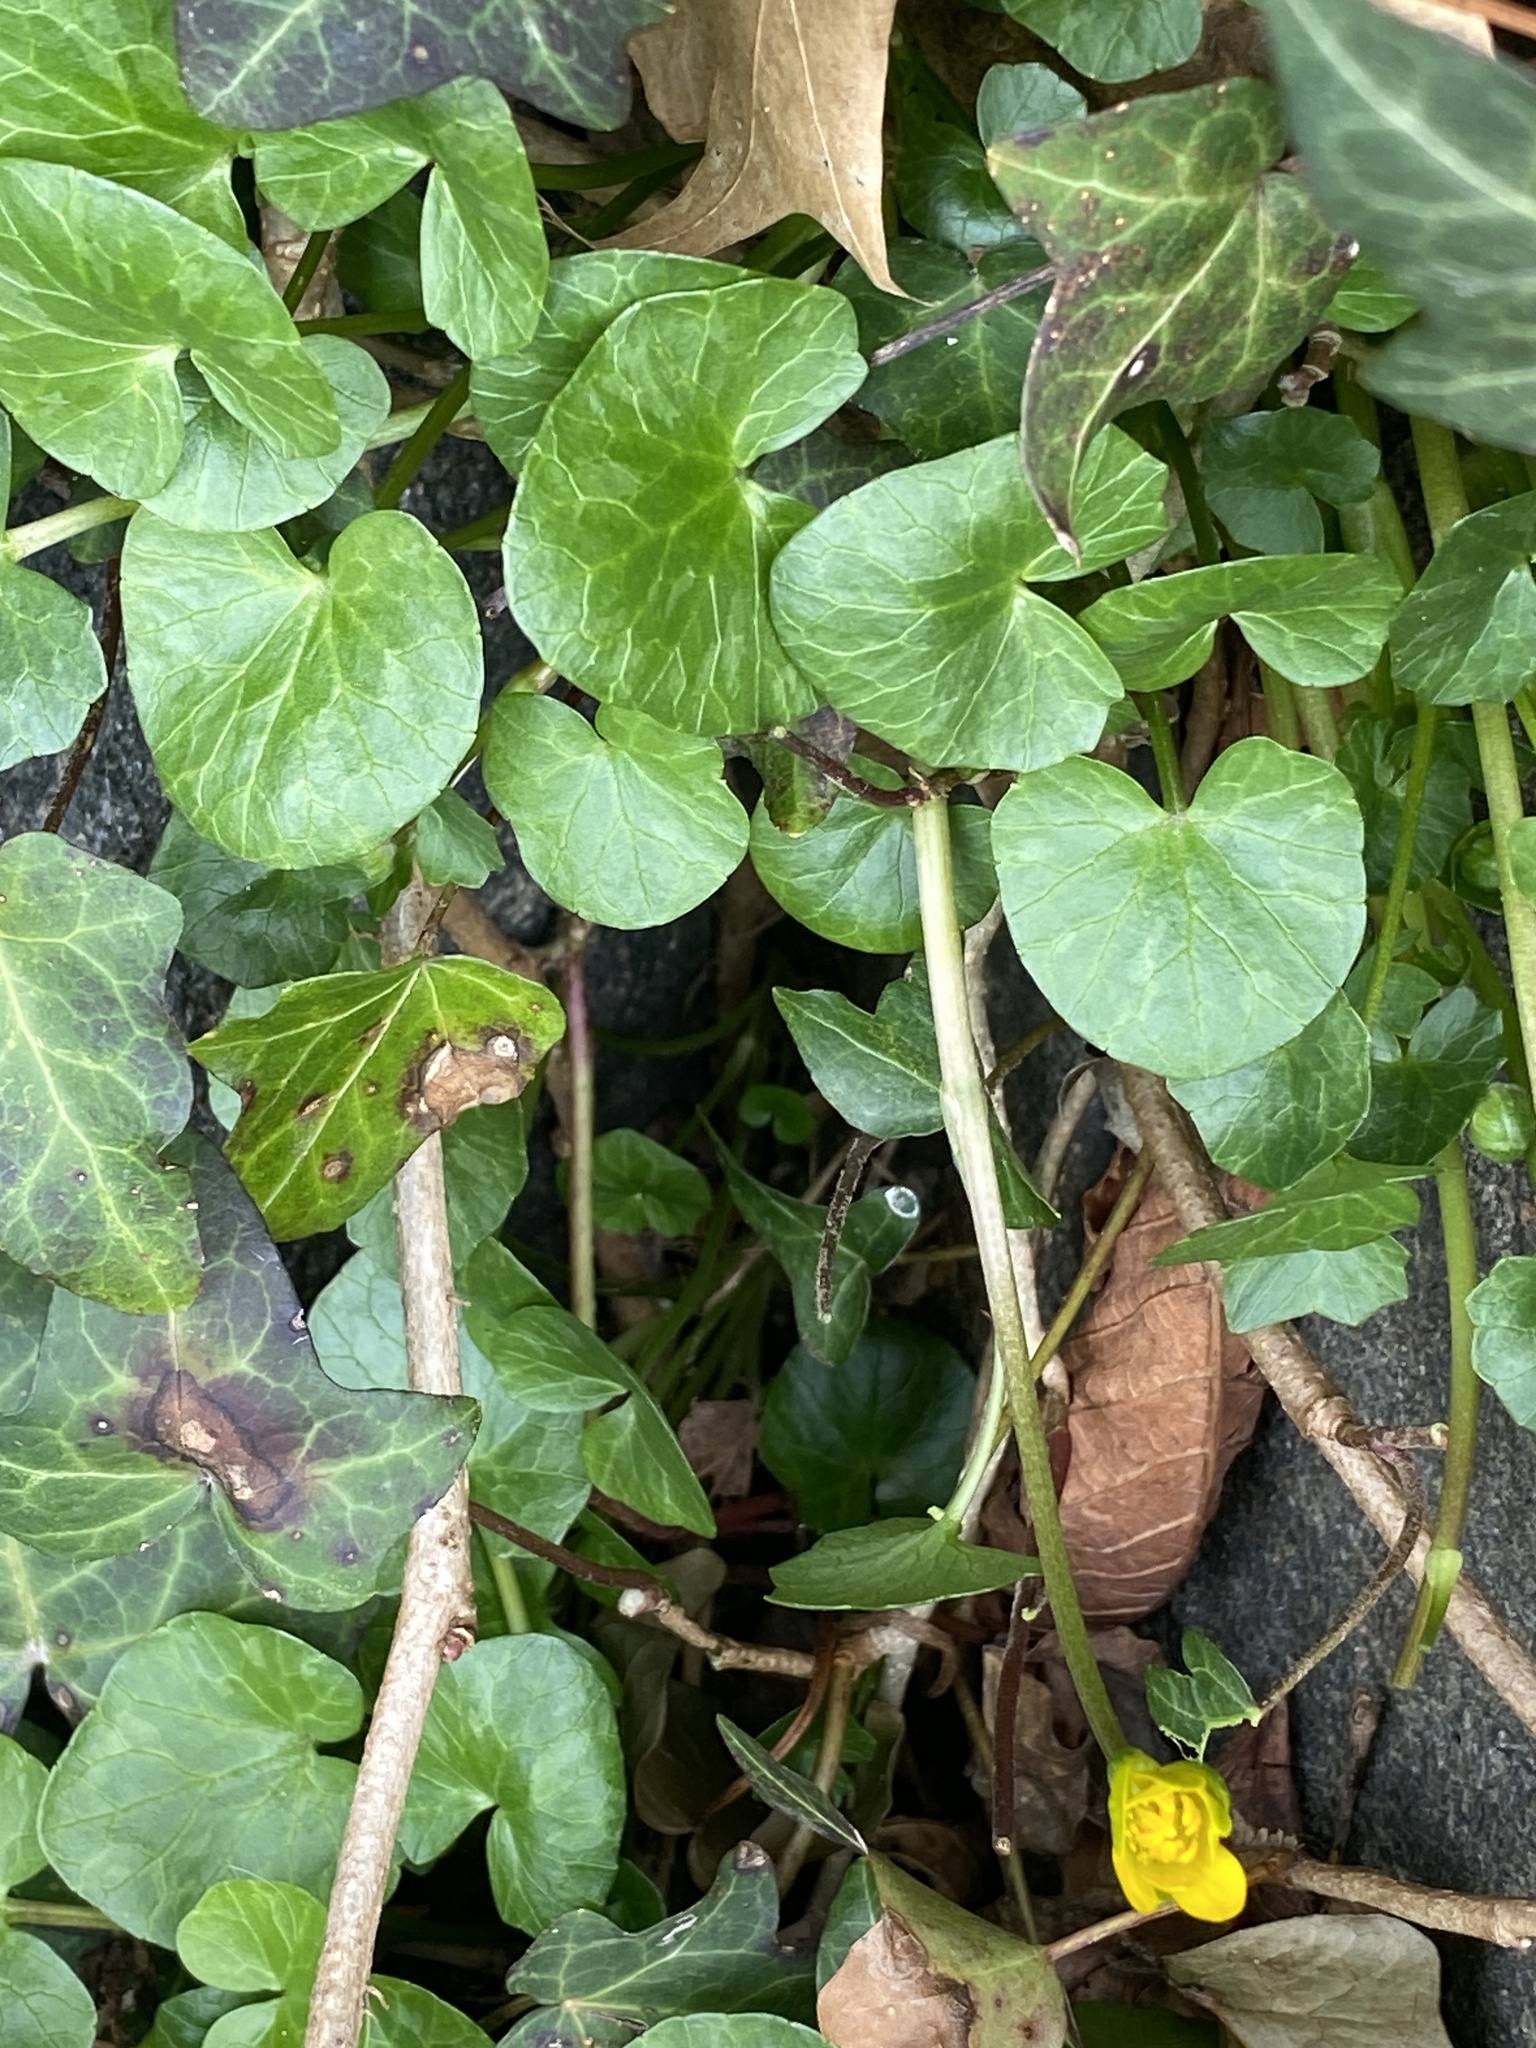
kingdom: Plantae
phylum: Tracheophyta
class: Magnoliopsida
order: Ranunculales
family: Ranunculaceae
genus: Ficaria
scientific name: Ficaria verna
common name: Lesser celandine
